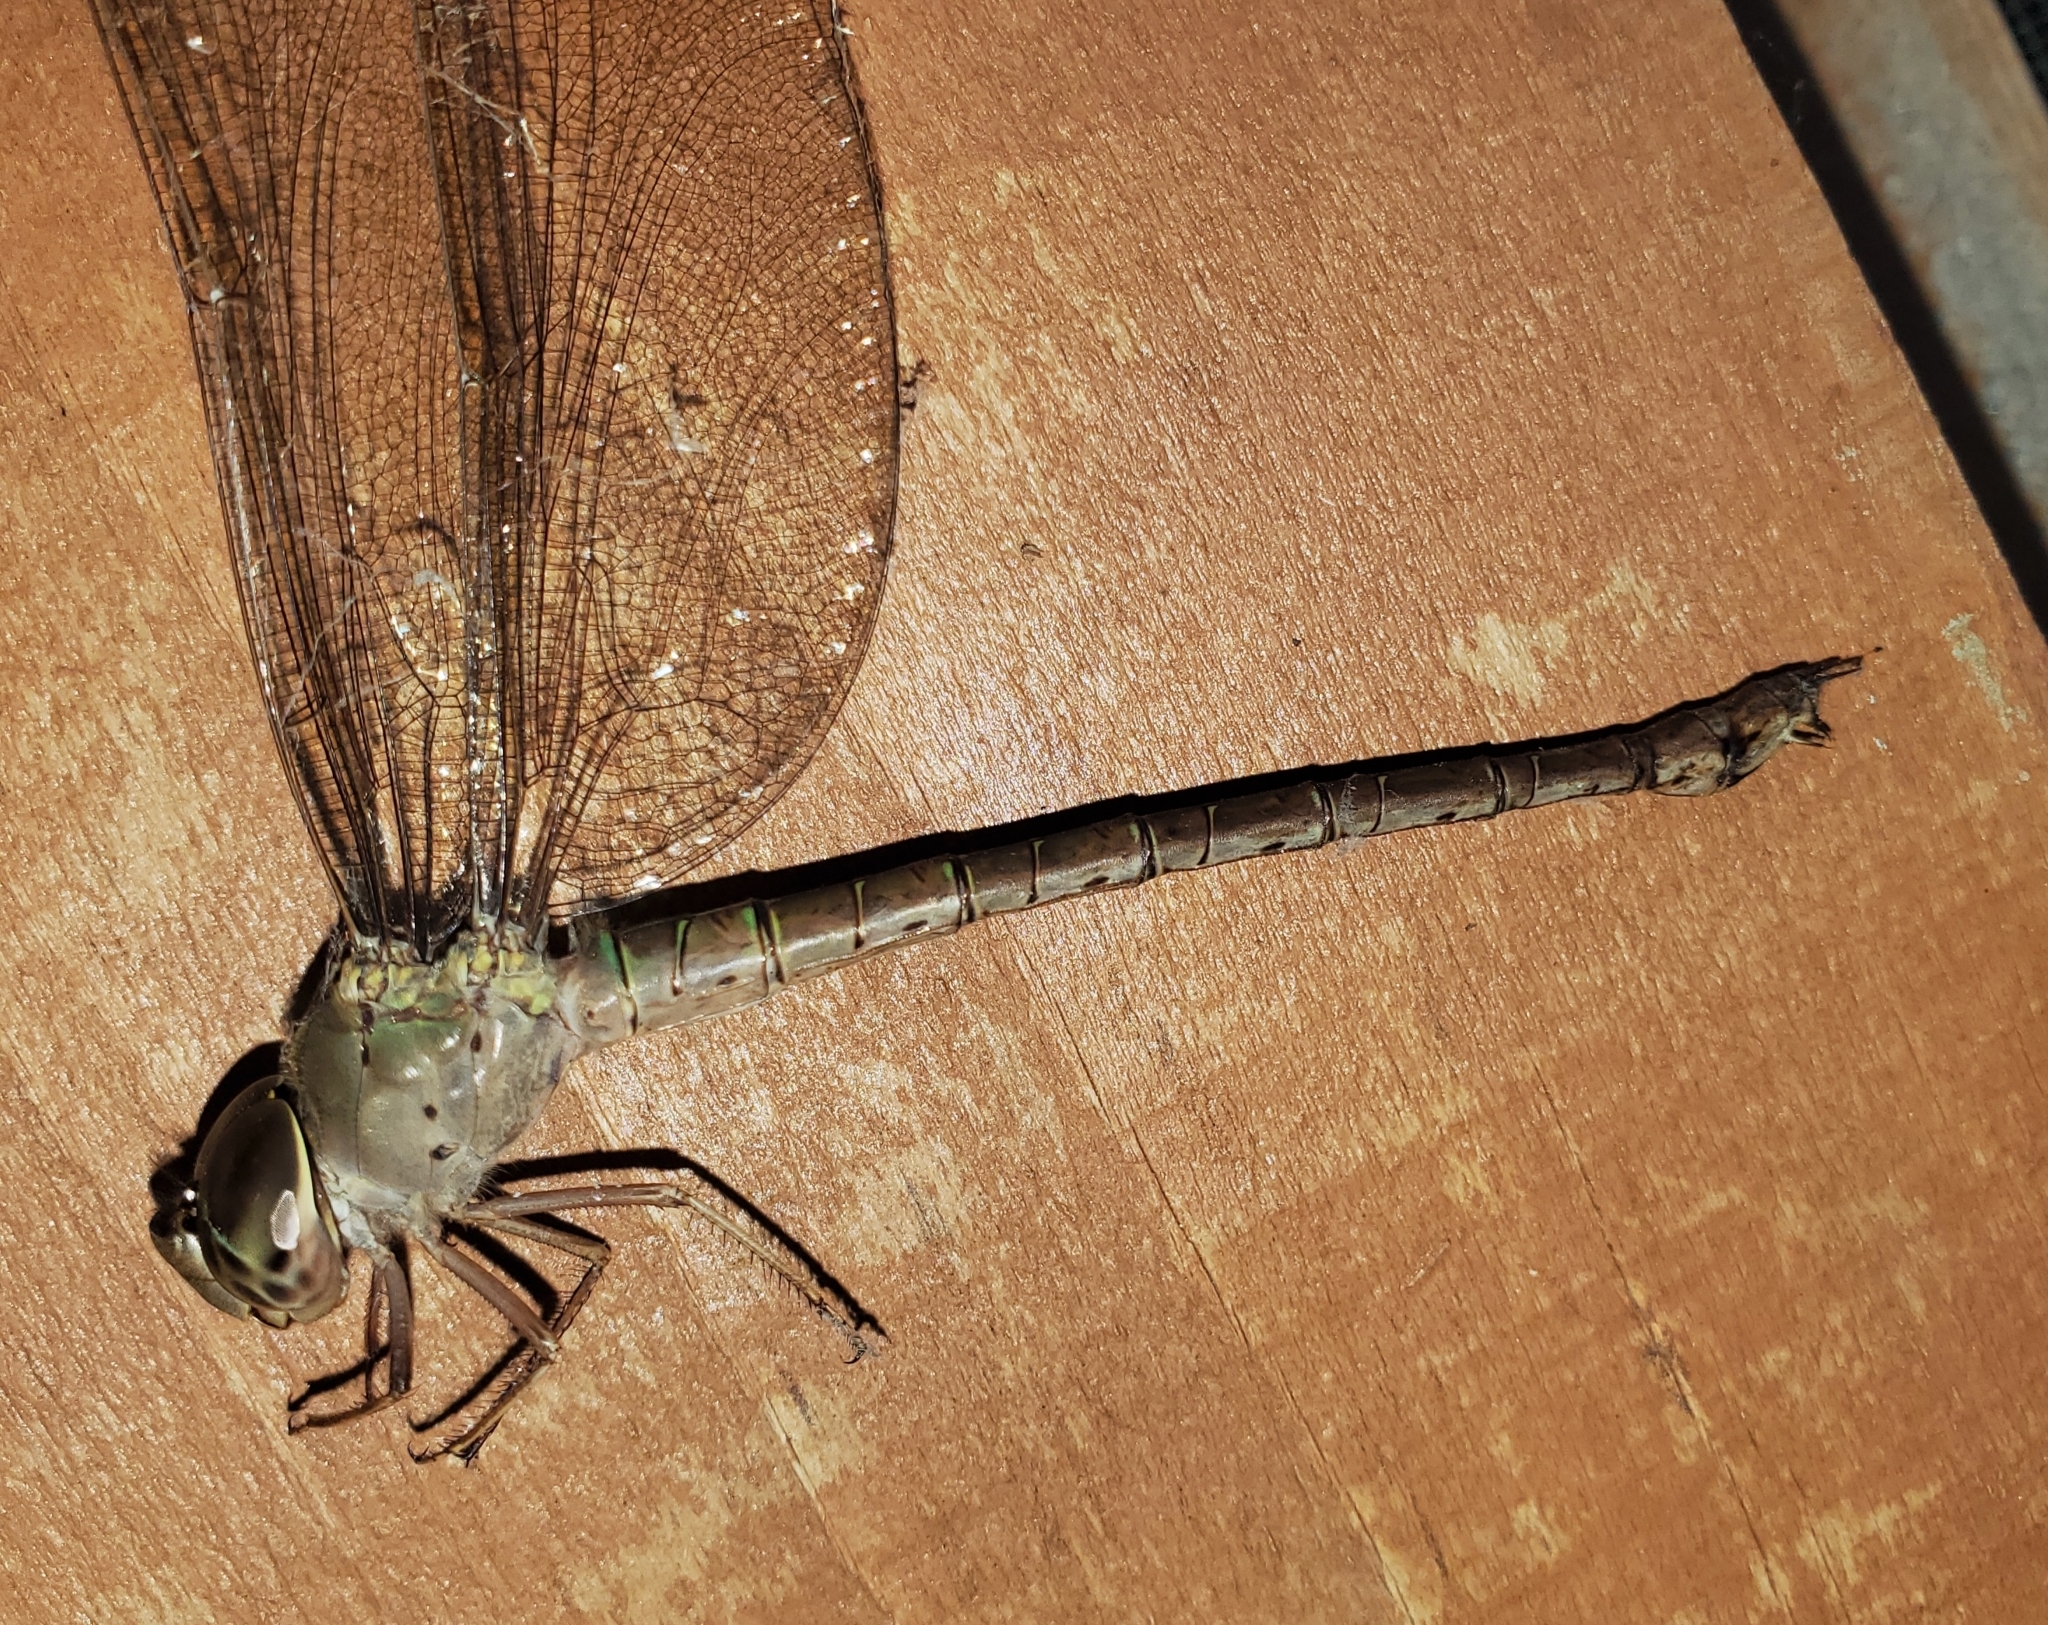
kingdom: Animalia
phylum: Arthropoda
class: Insecta
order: Odonata
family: Aeshnidae
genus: Gynacantha
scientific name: Gynacantha nervosa
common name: Twilight darner
